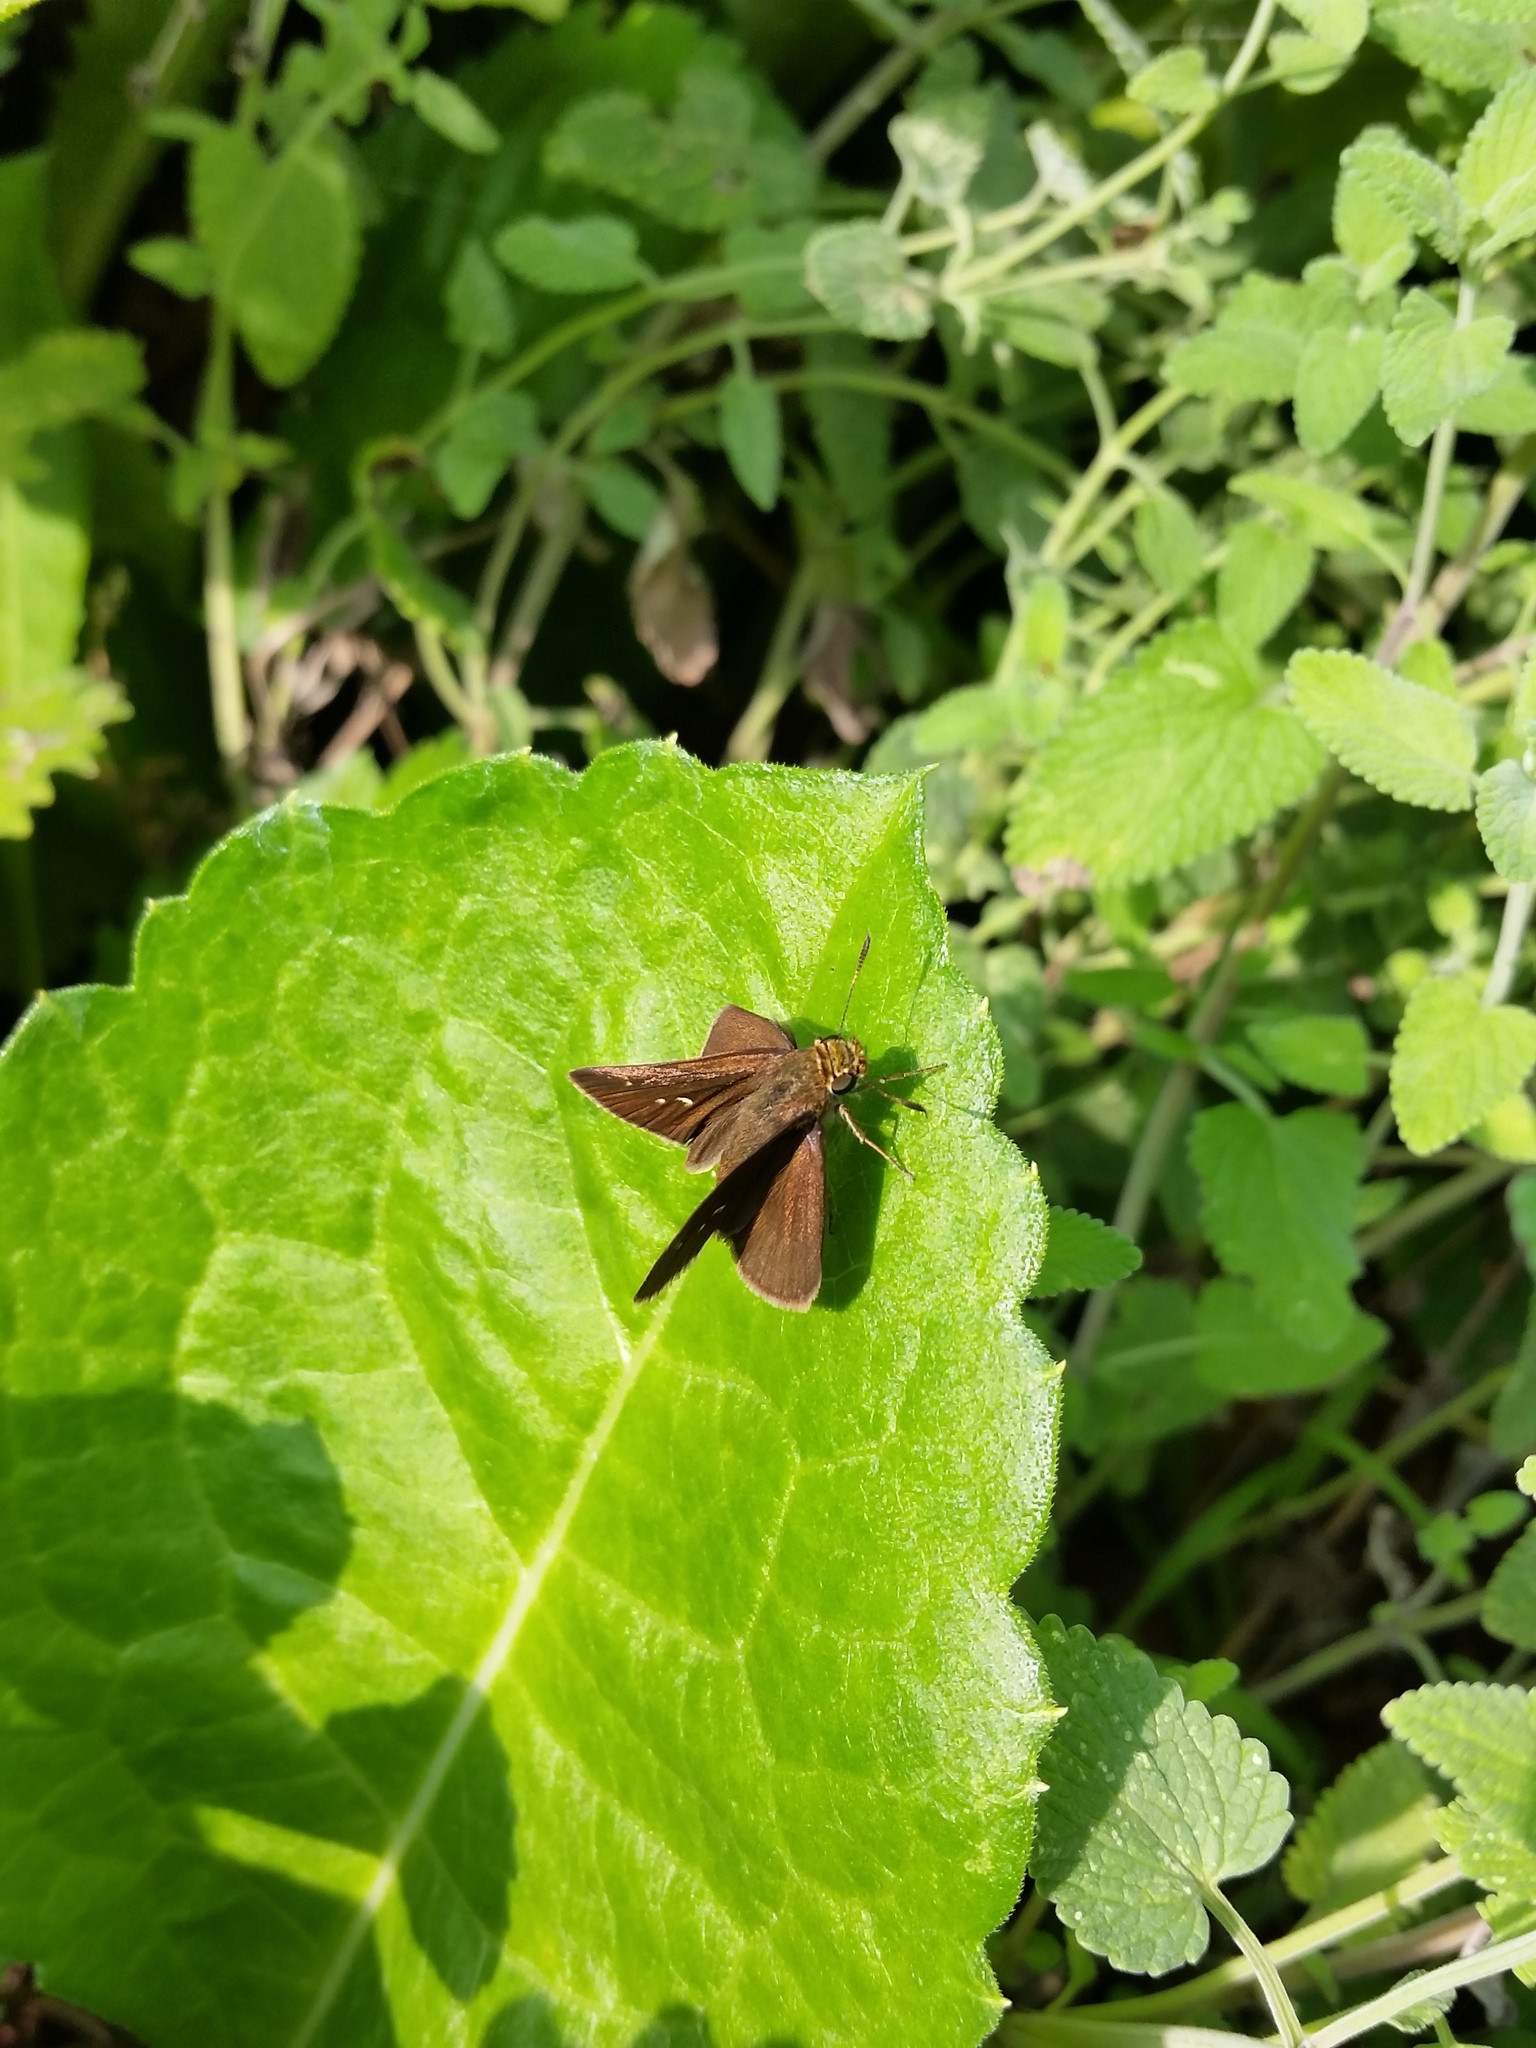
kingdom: Animalia
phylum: Arthropoda
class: Insecta
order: Lepidoptera
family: Hesperiidae
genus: Euphyes
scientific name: Euphyes vestris
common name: Dun skipper
